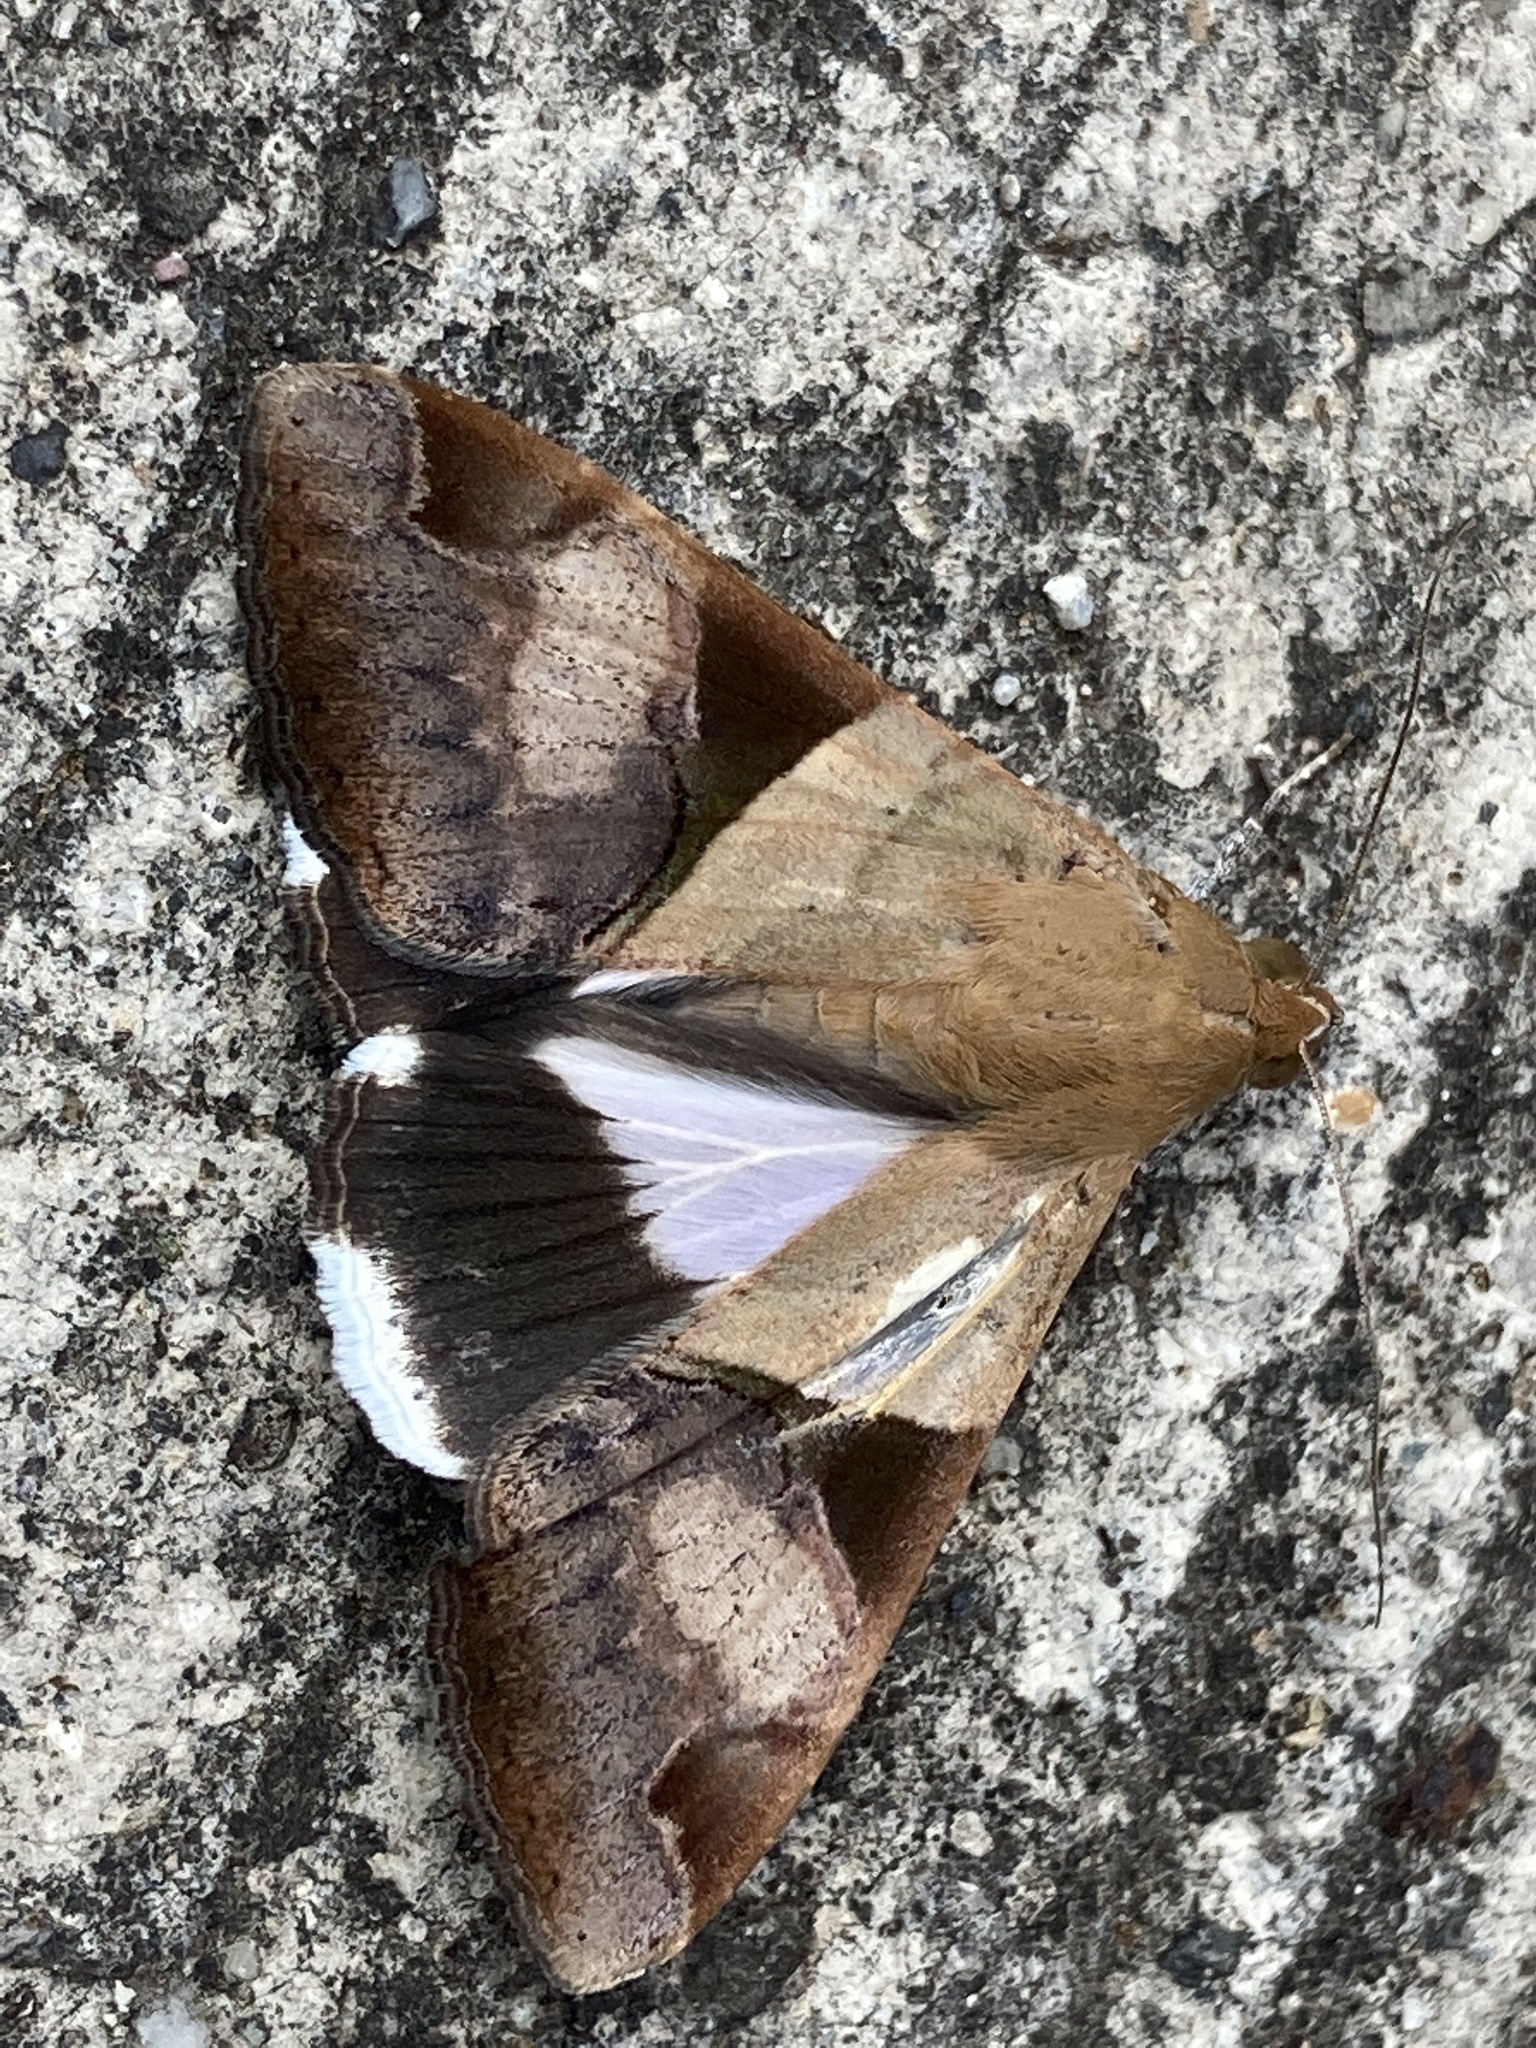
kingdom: Animalia
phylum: Arthropoda
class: Insecta
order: Lepidoptera
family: Erebidae
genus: Melipotis
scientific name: Melipotis fasciolaris
